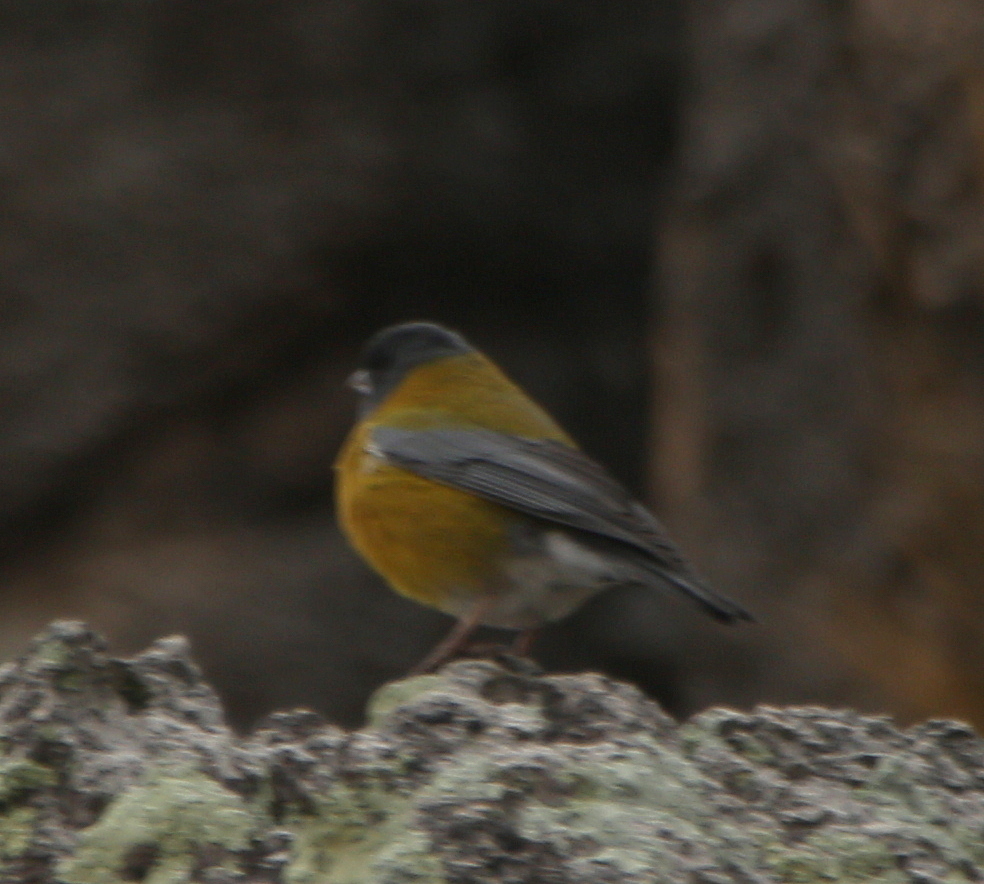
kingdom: Animalia
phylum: Chordata
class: Aves
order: Passeriformes
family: Thraupidae
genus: Phrygilus
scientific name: Phrygilus punensis
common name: Peruvian sierra finch
